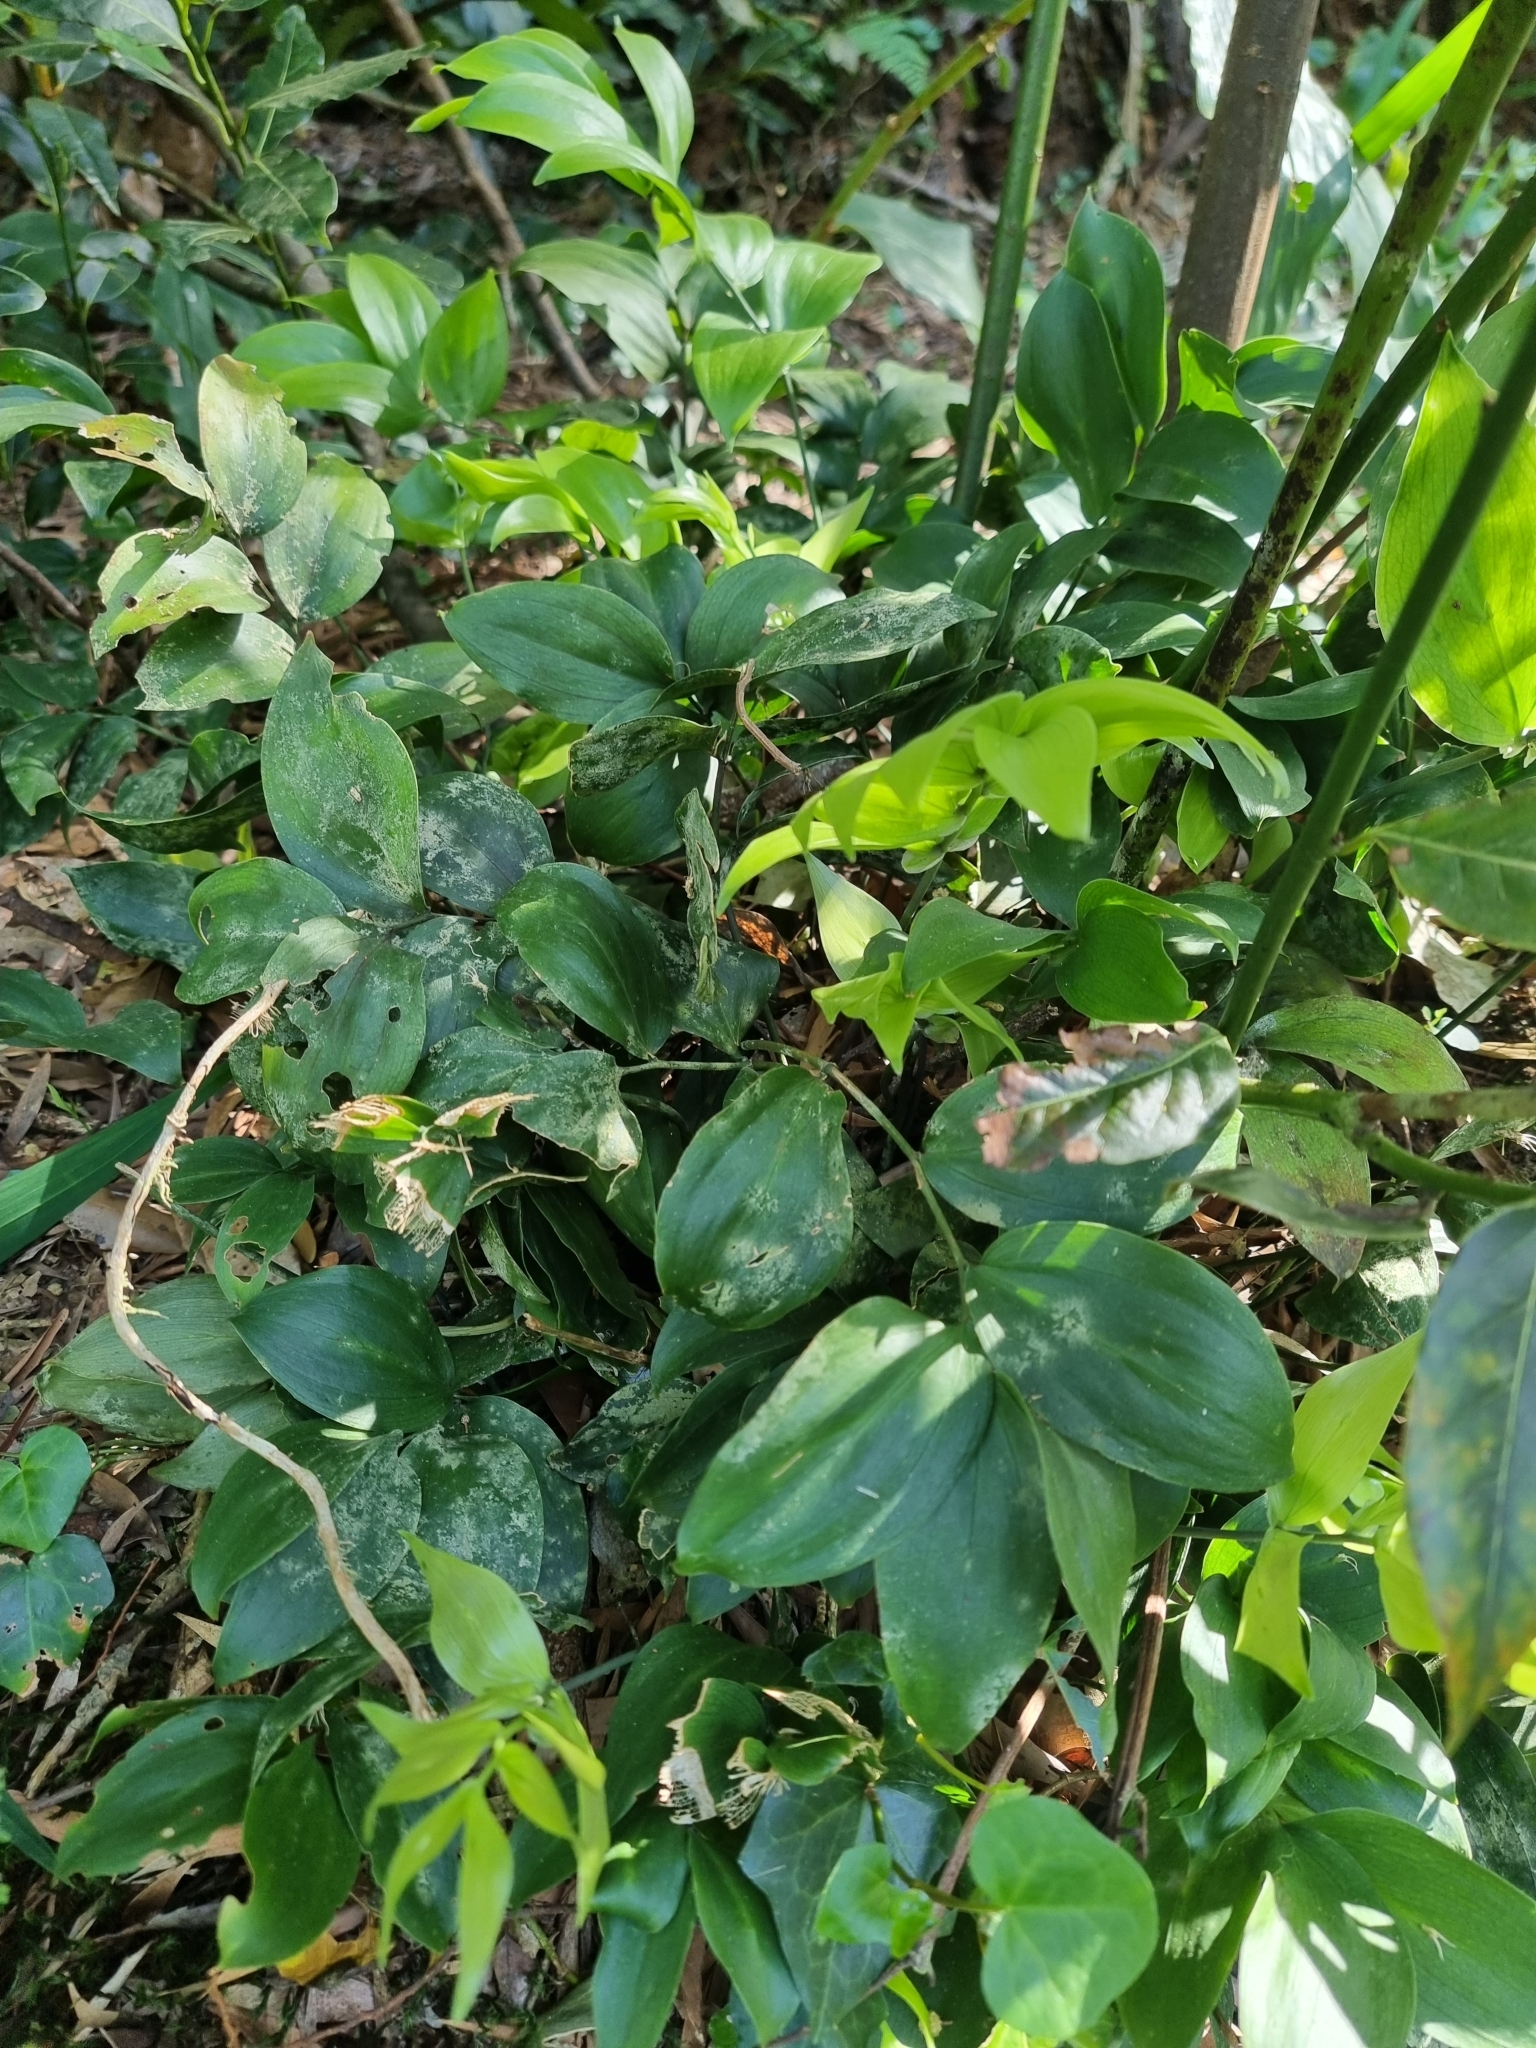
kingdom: Plantae
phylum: Tracheophyta
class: Liliopsida
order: Asparagales
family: Asparagaceae
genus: Ruscus
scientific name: Ruscus streptophyllus
